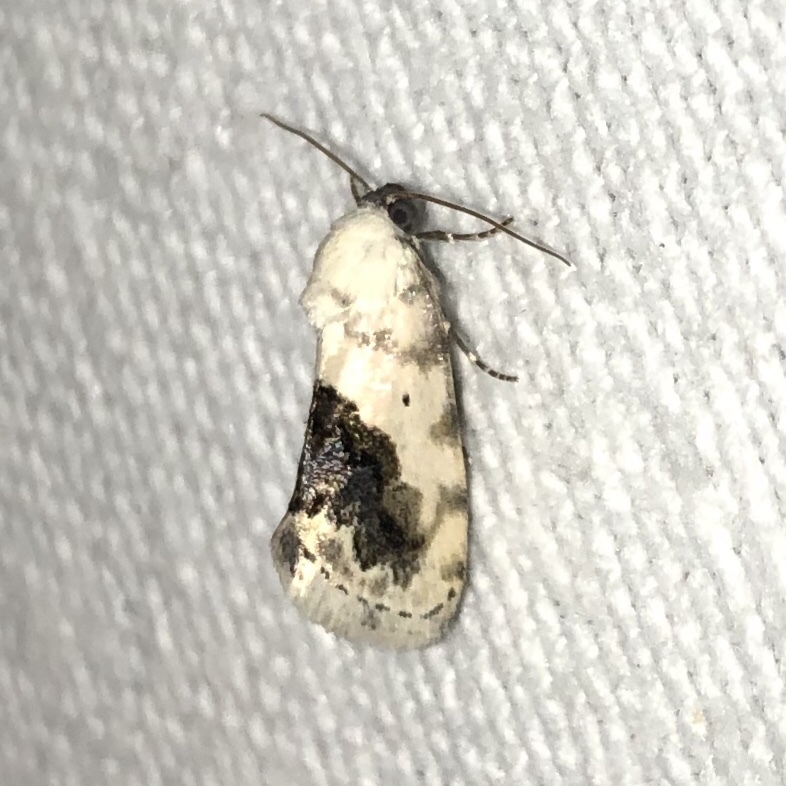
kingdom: Animalia
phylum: Arthropoda
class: Insecta
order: Lepidoptera
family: Noctuidae
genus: Acontia
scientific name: Acontia erastrioides
